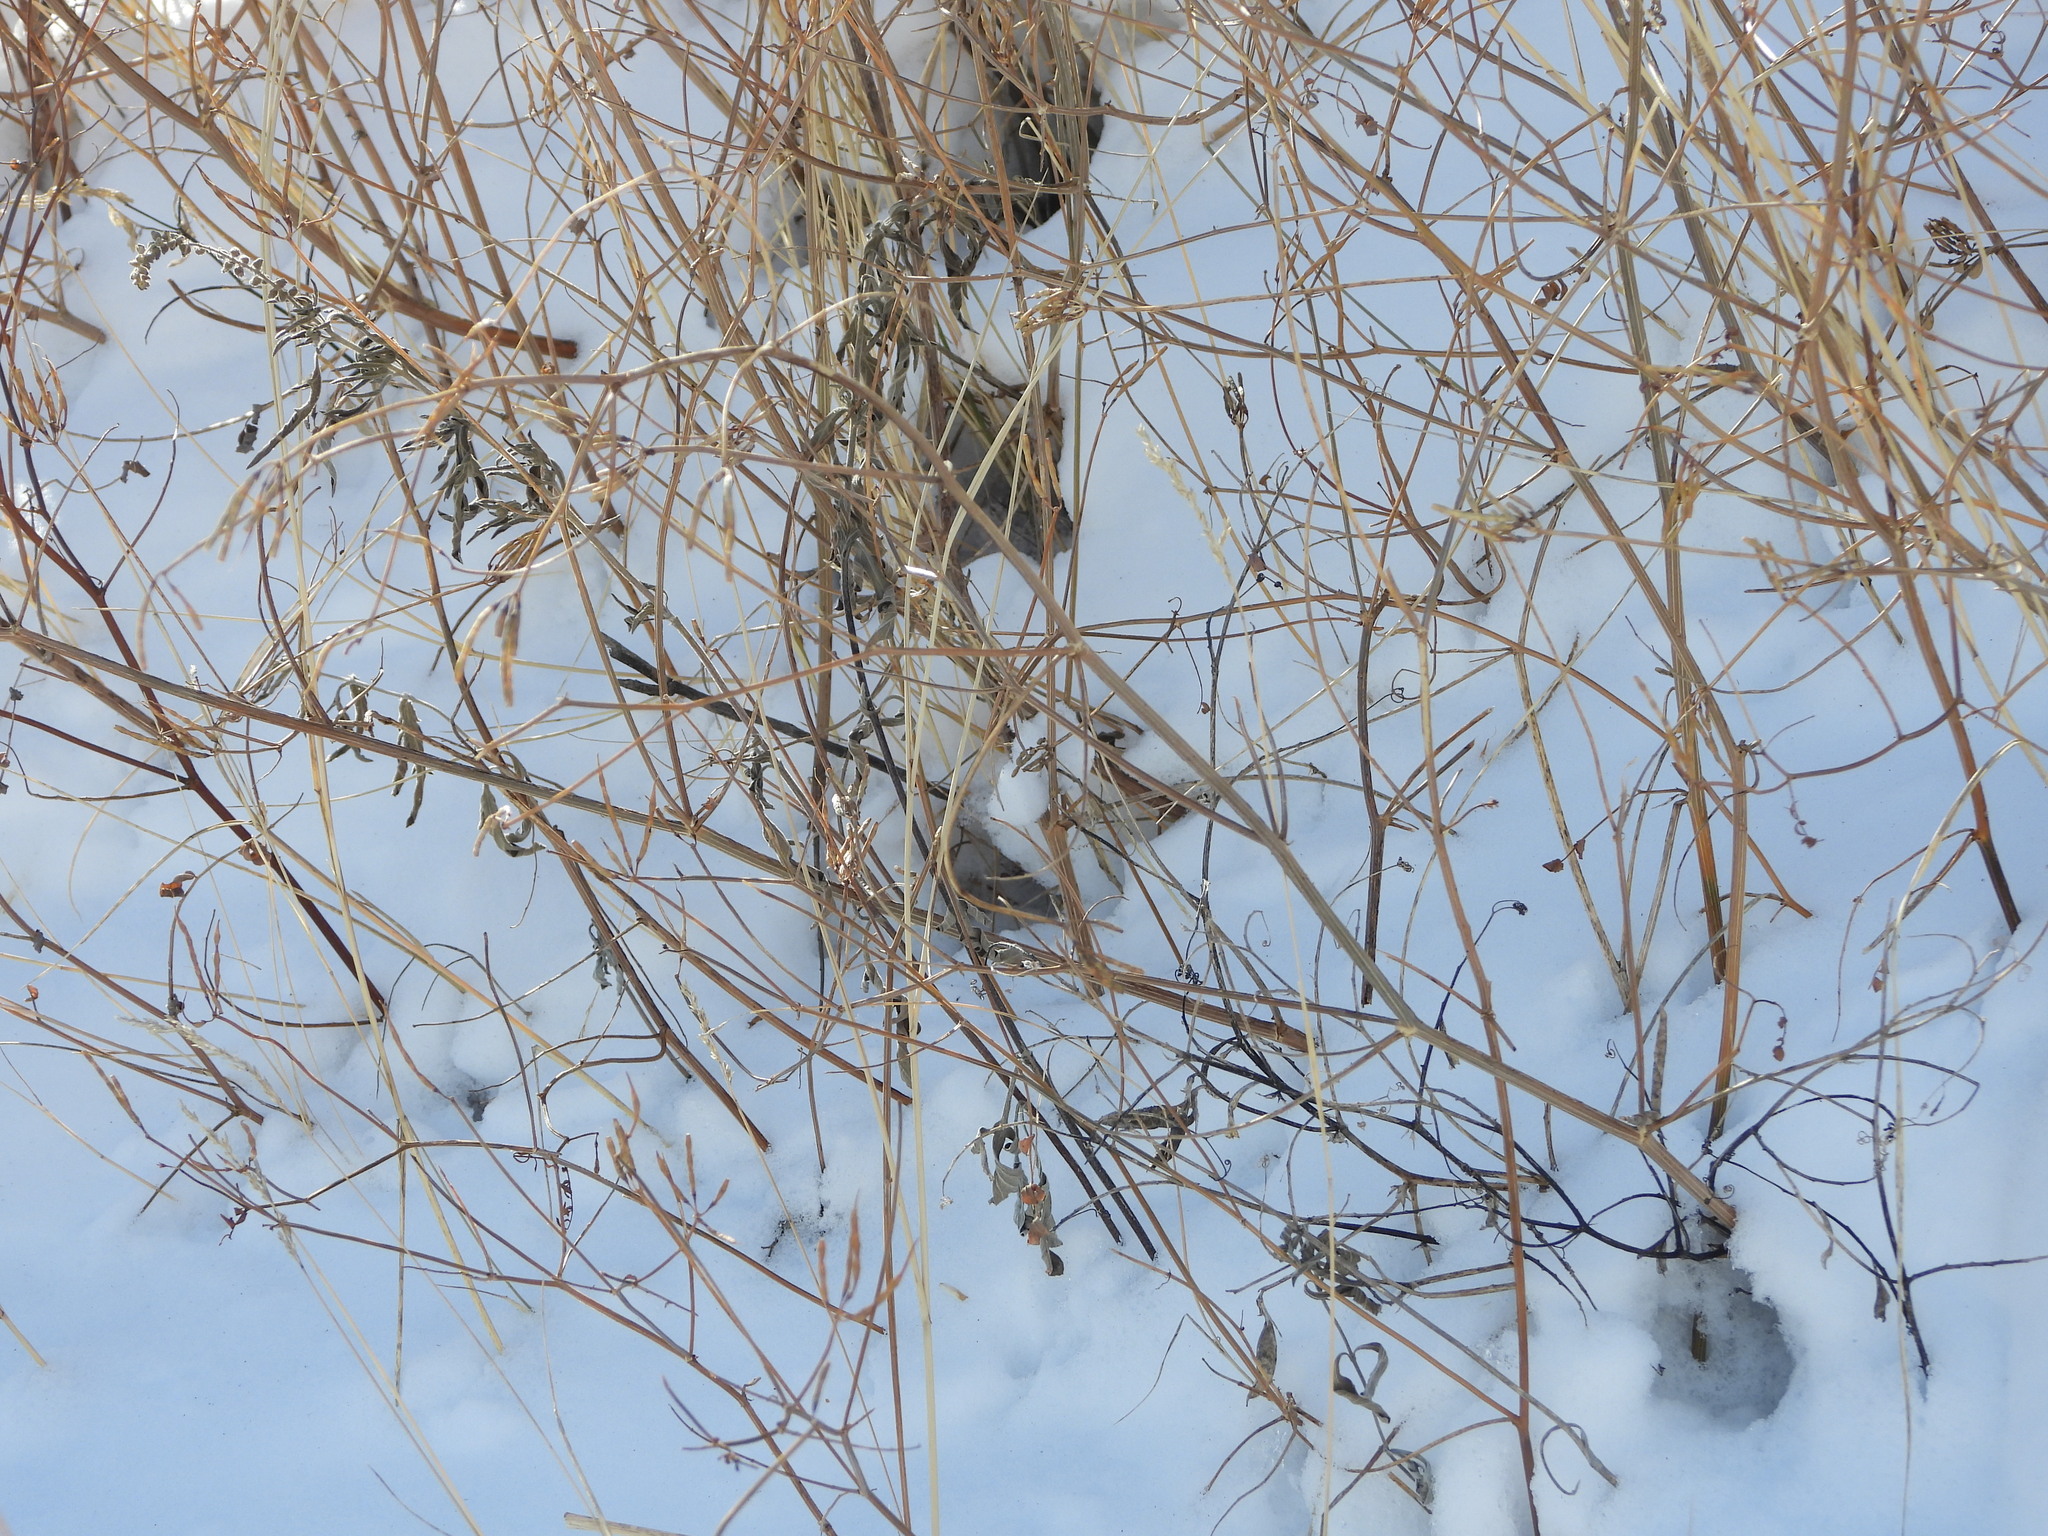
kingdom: Plantae
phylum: Tracheophyta
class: Magnoliopsida
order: Fabales
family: Fabaceae
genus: Coronilla
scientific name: Coronilla varia
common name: Crownvetch
